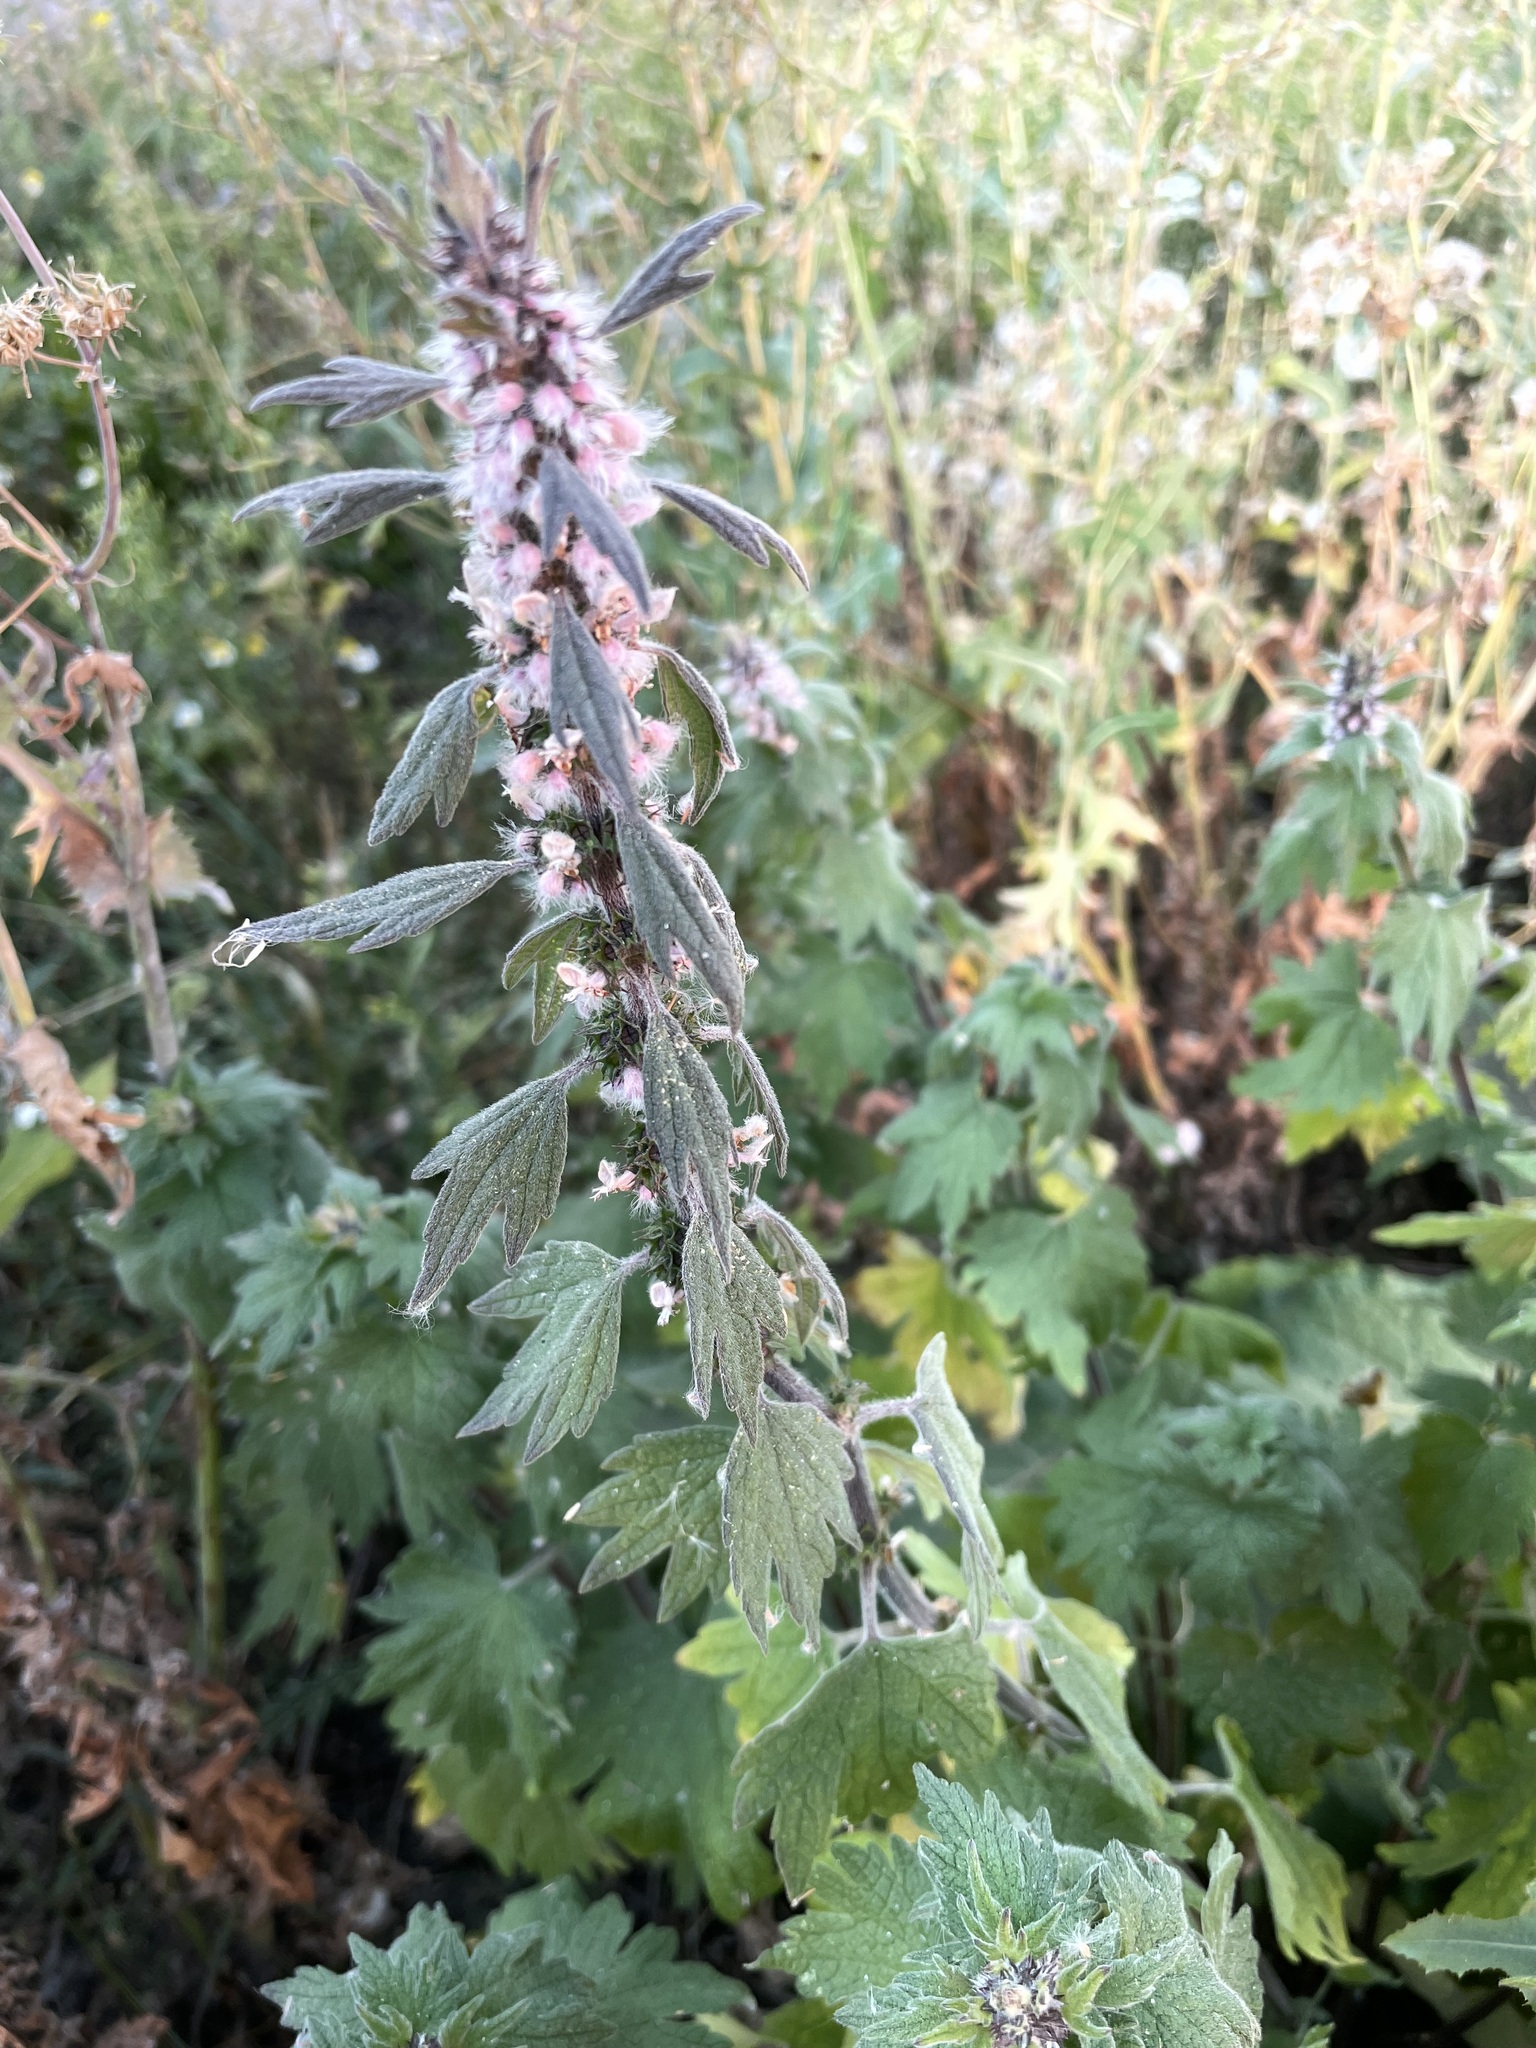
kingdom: Plantae
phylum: Tracheophyta
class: Magnoliopsida
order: Lamiales
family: Lamiaceae
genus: Leonurus
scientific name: Leonurus quinquelobatus
